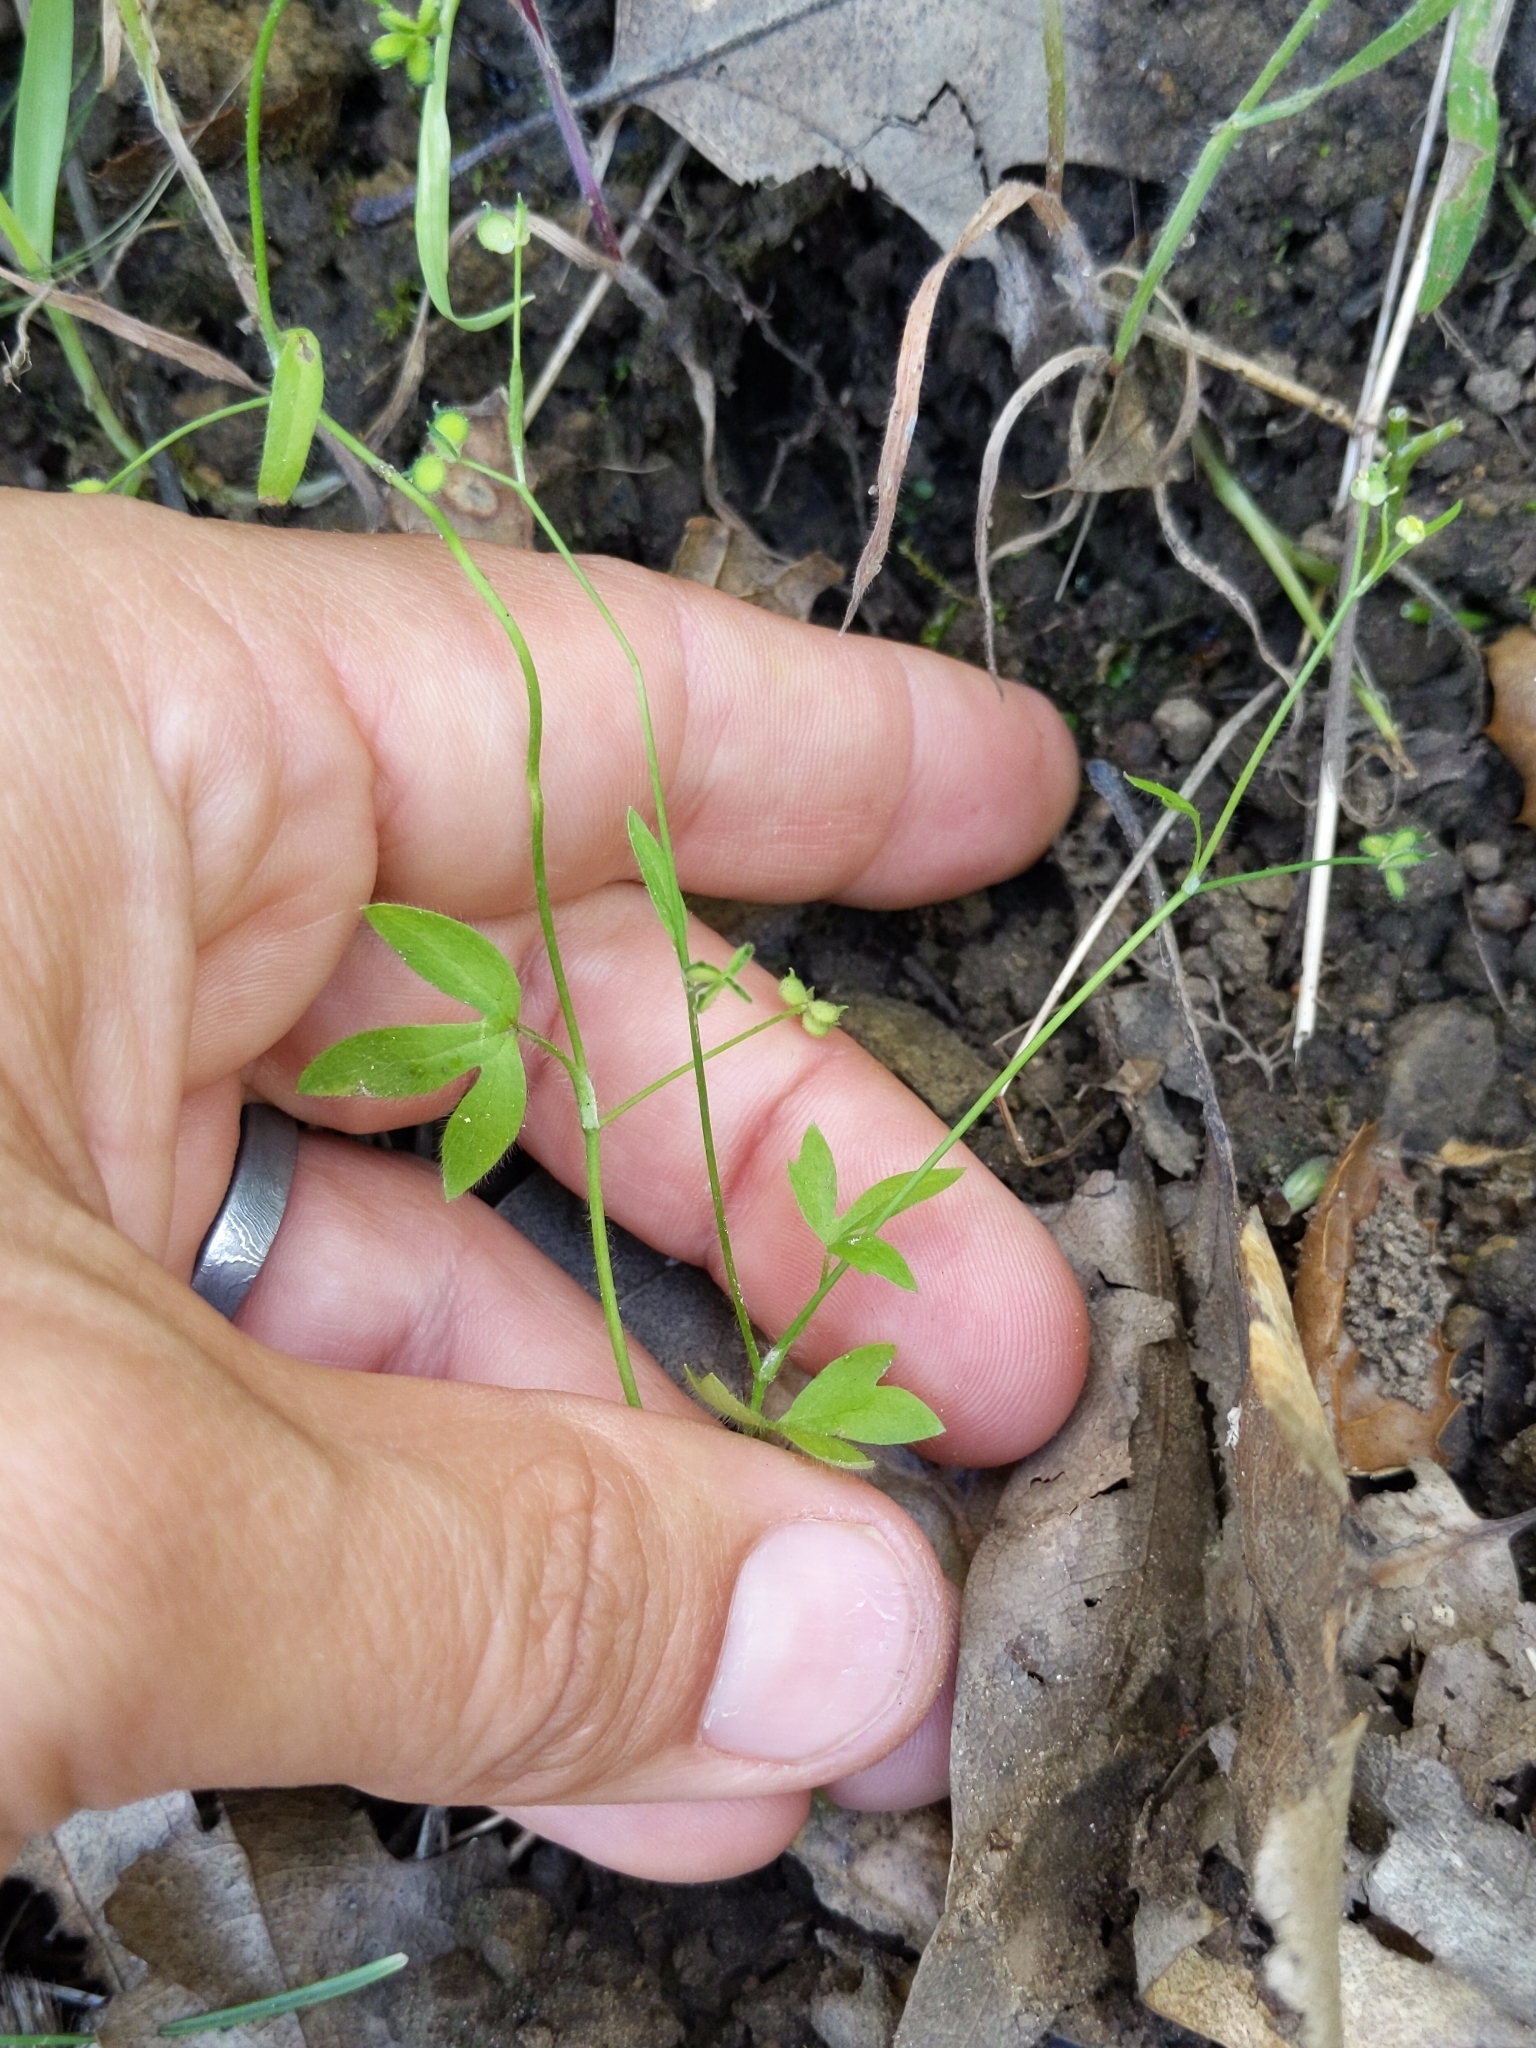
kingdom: Plantae
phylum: Tracheophyta
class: Magnoliopsida
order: Ranunculales
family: Ranunculaceae
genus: Ranunculus
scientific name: Ranunculus hebecarpus
